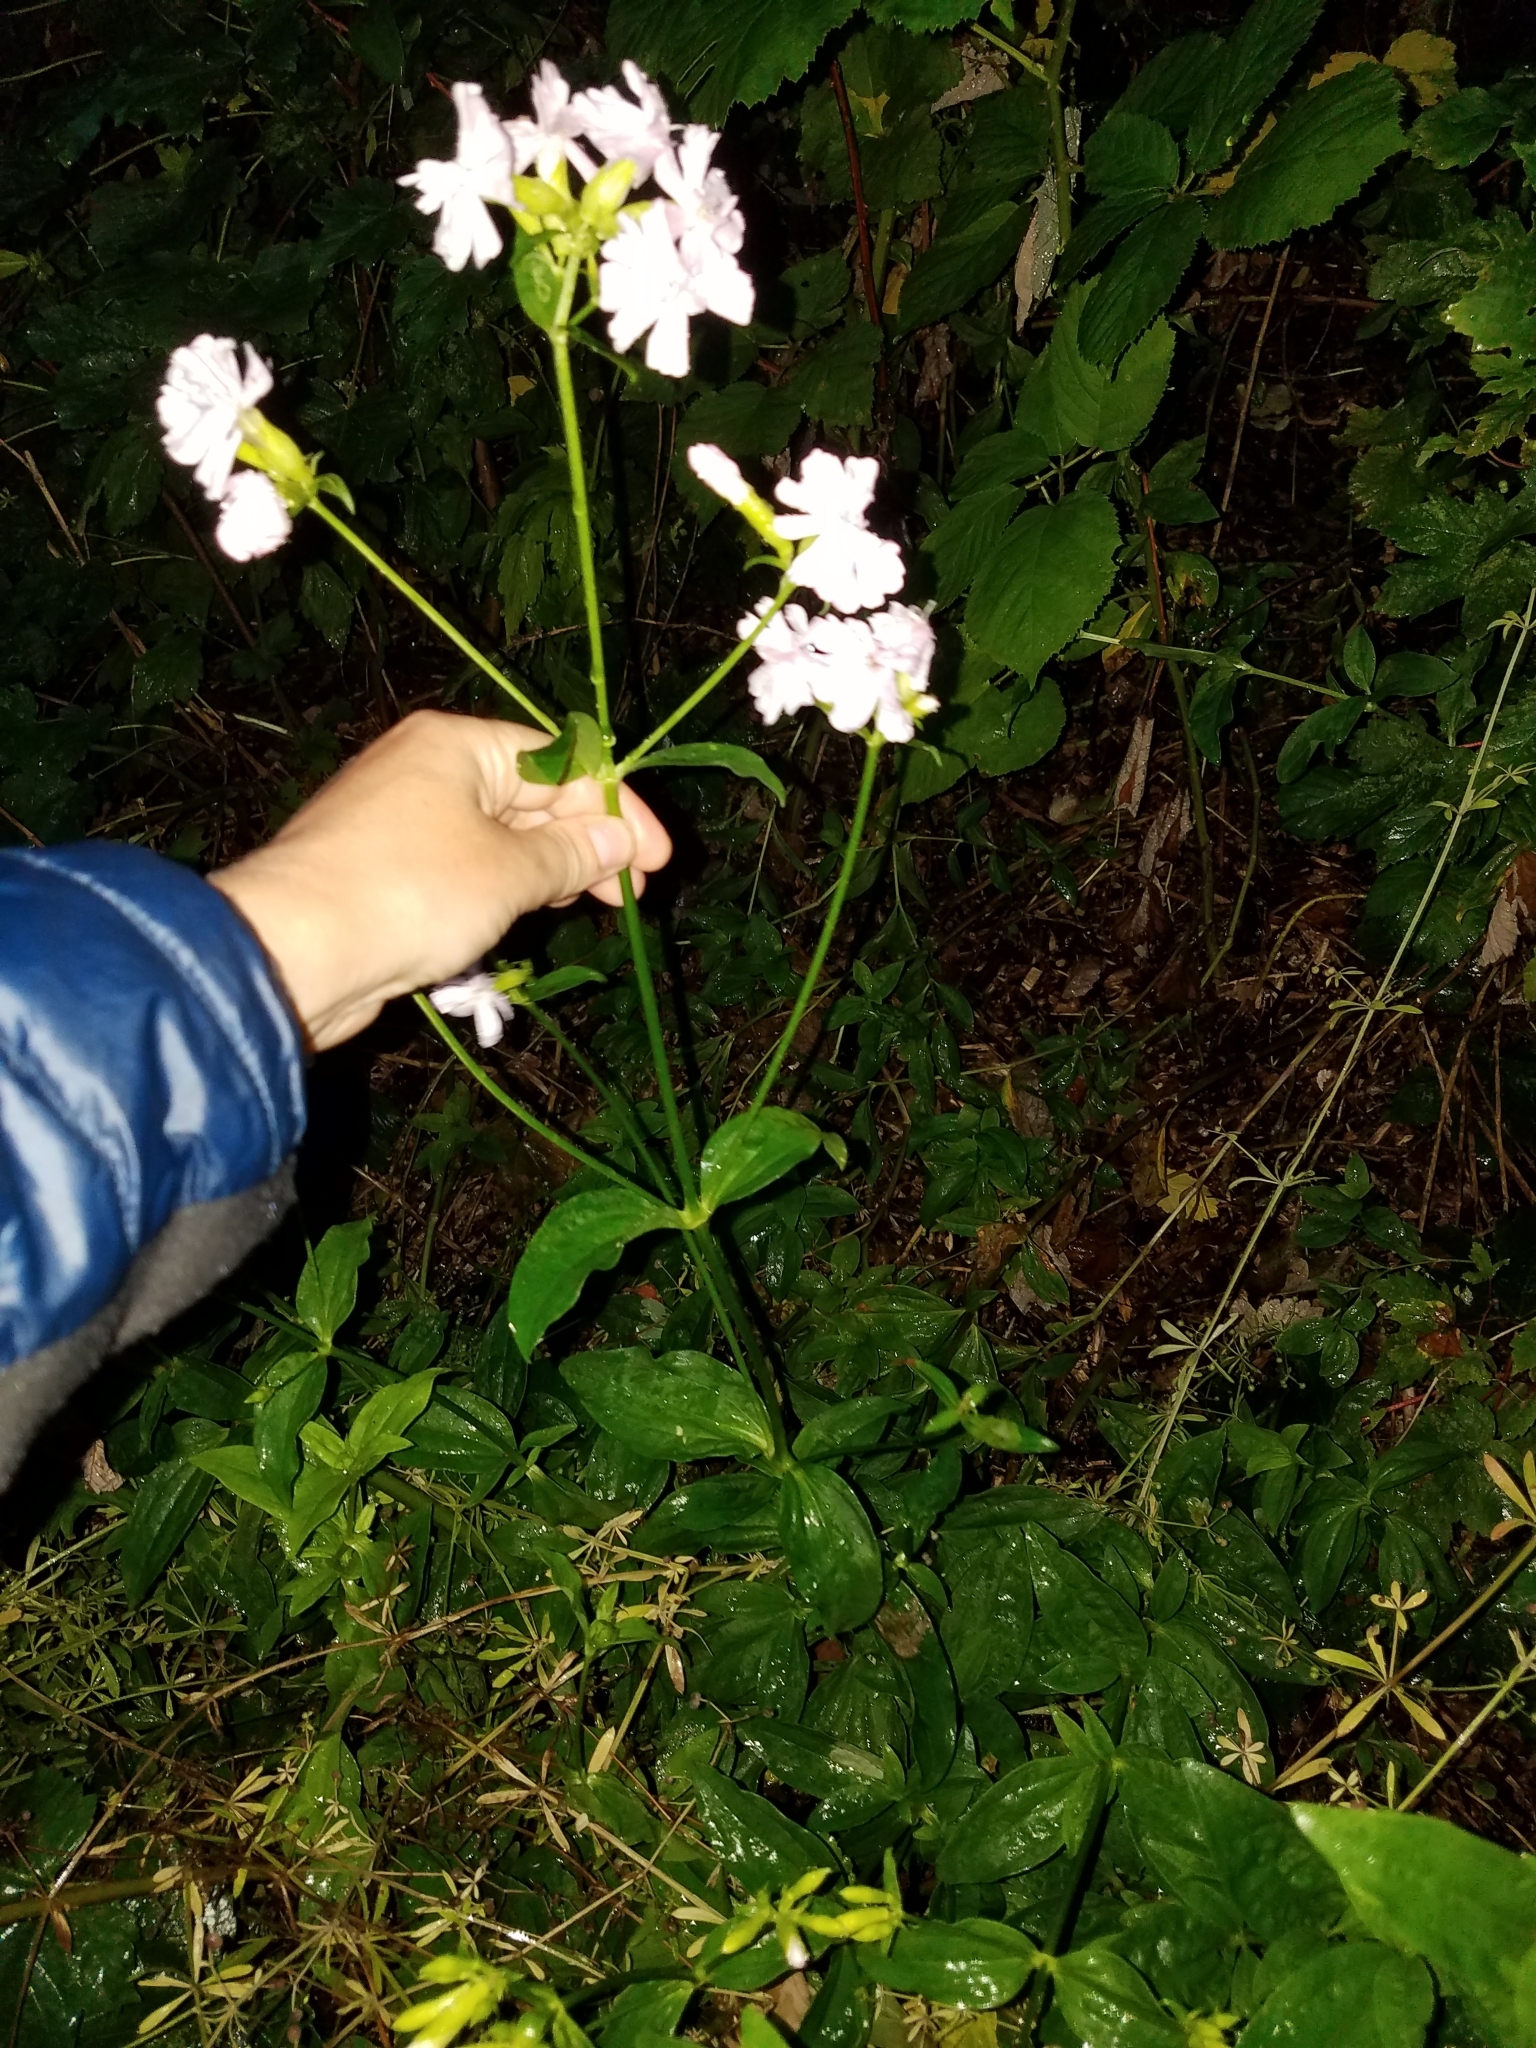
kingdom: Plantae
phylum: Tracheophyta
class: Magnoliopsida
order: Caryophyllales
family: Caryophyllaceae
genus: Saponaria
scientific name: Saponaria officinalis
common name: Soapwort
